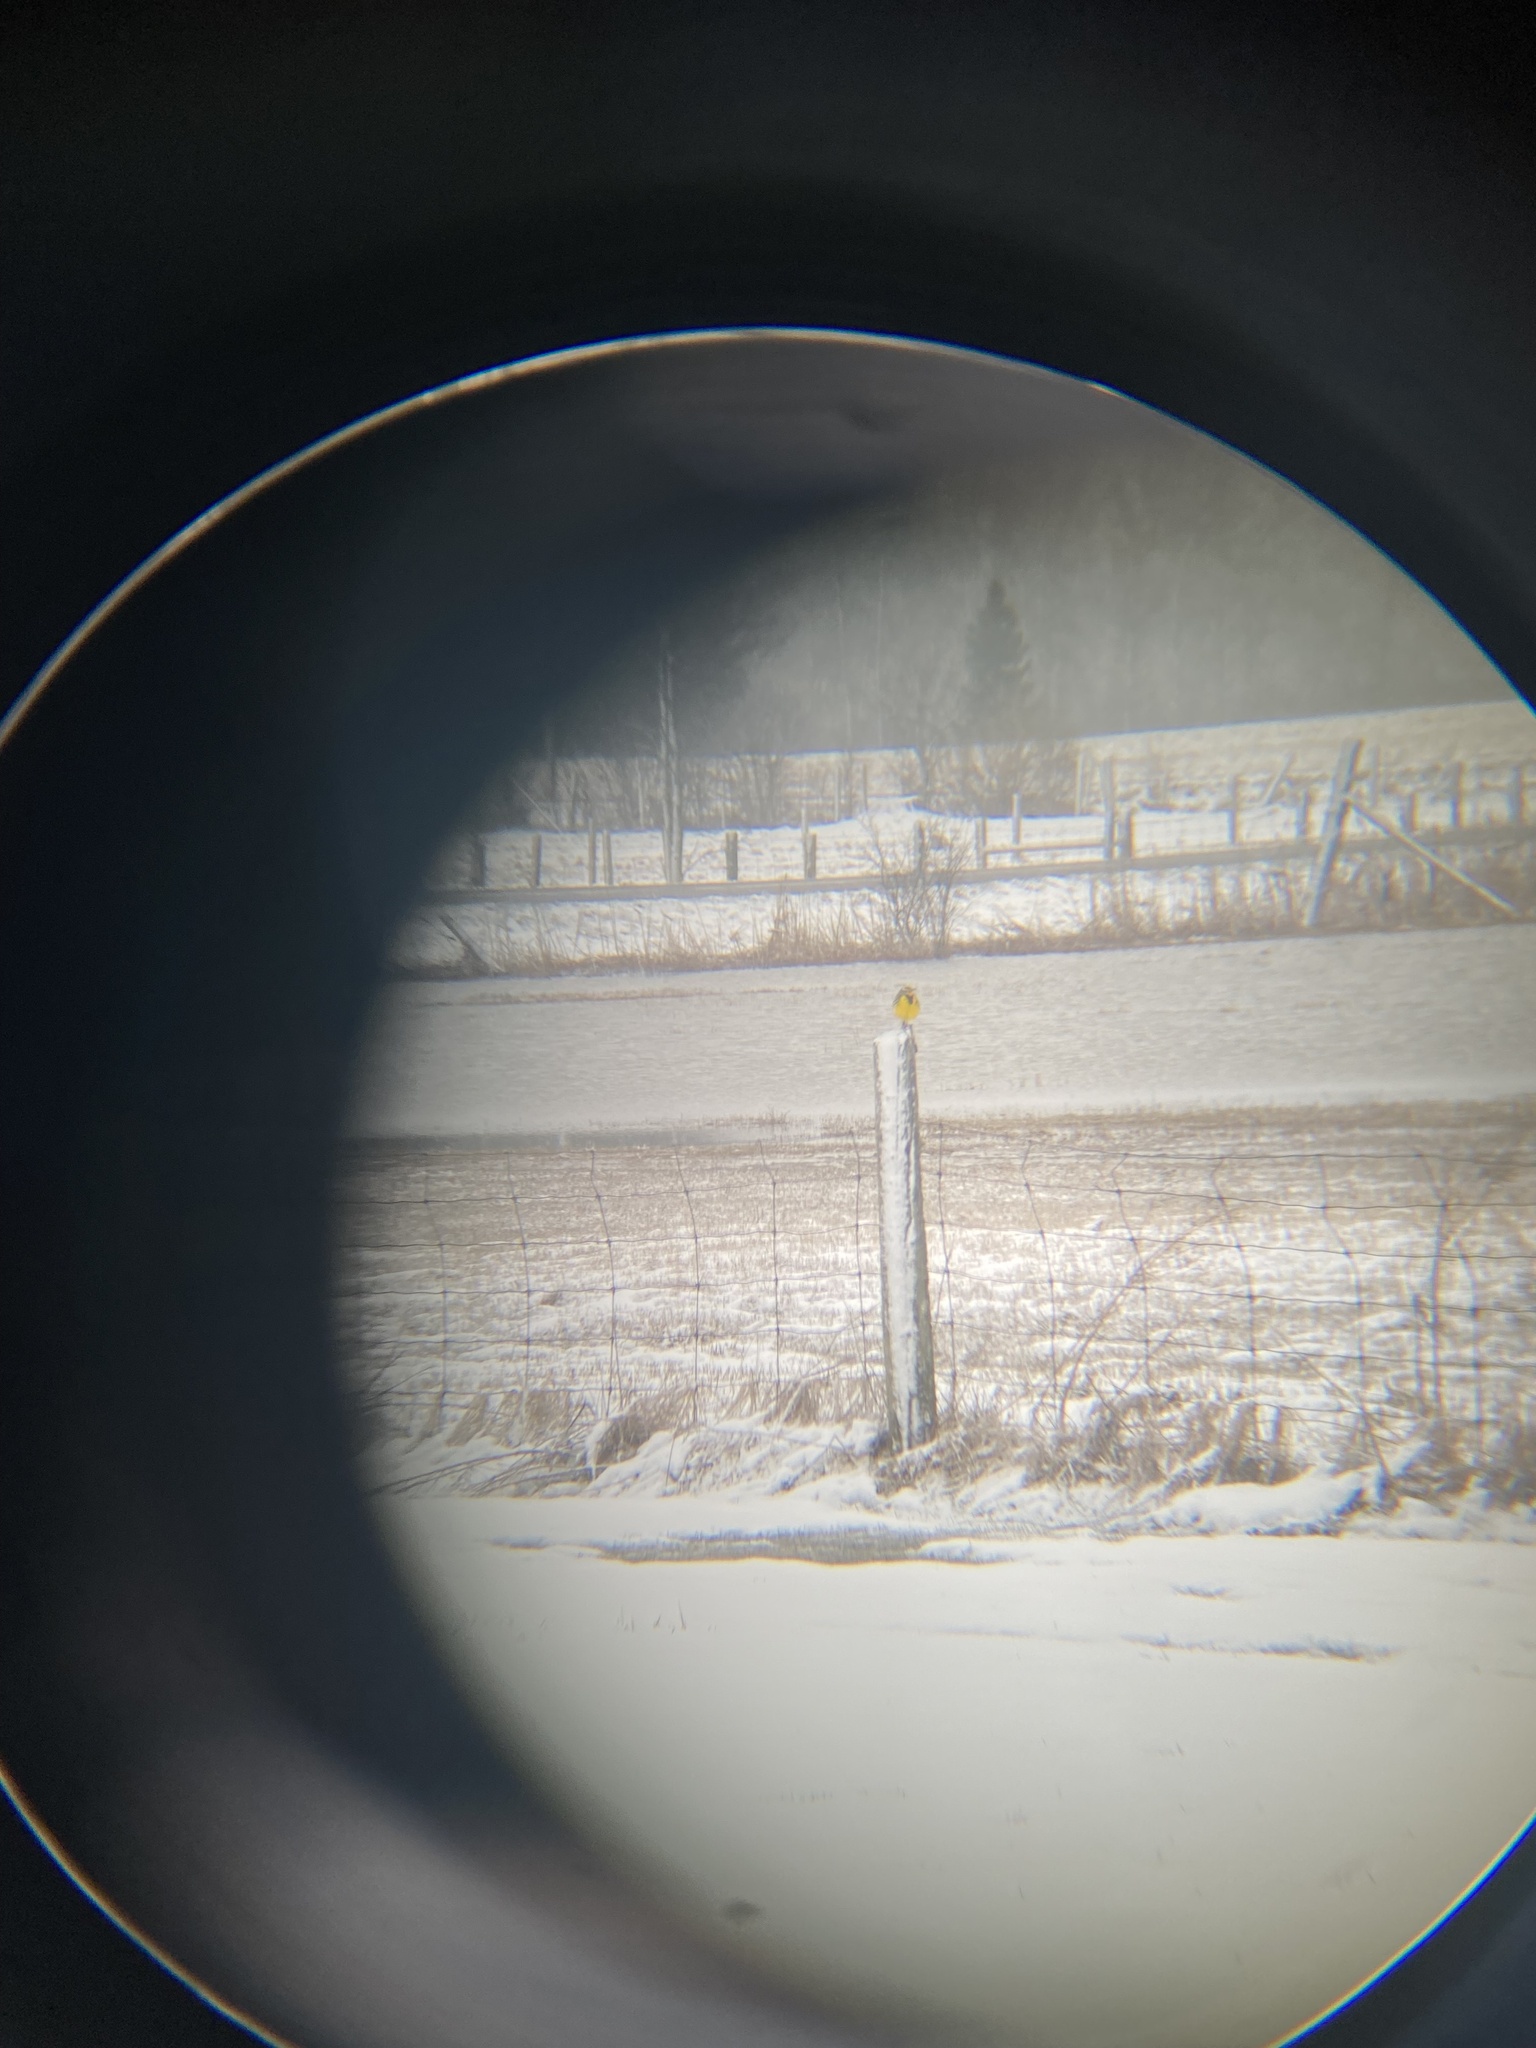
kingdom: Animalia
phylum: Chordata
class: Aves
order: Passeriformes
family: Icteridae
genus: Sturnella
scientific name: Sturnella magna
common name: Eastern meadowlark
